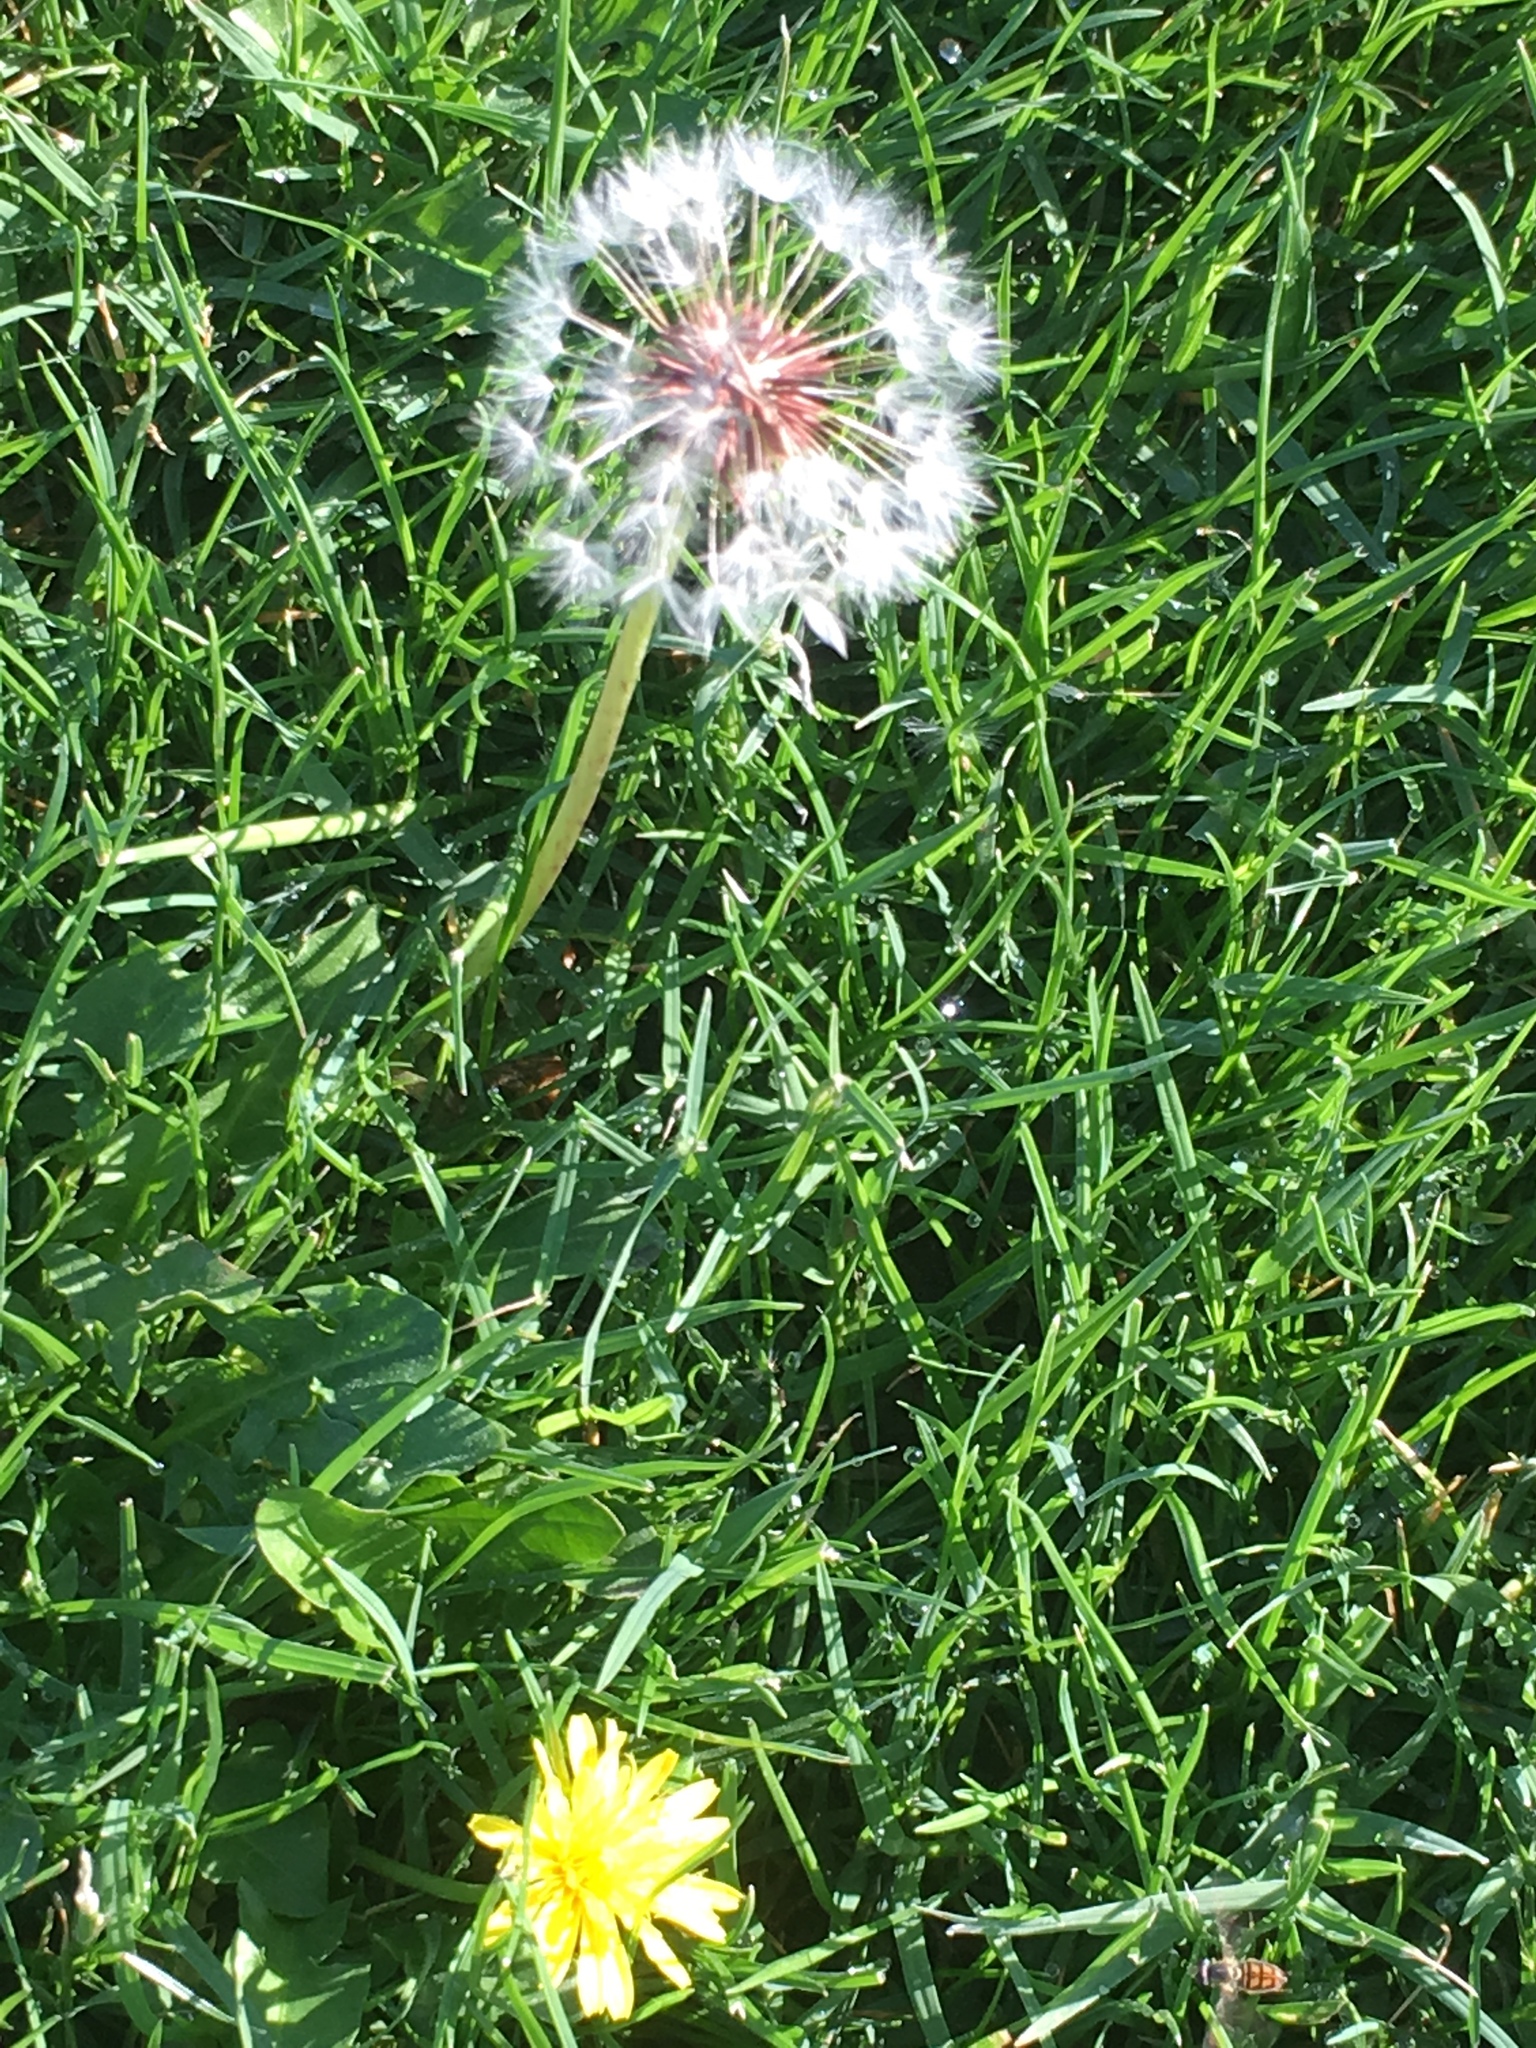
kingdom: Plantae
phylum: Tracheophyta
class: Magnoliopsida
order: Asterales
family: Asteraceae
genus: Taraxacum
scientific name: Taraxacum officinale
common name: Common dandelion
